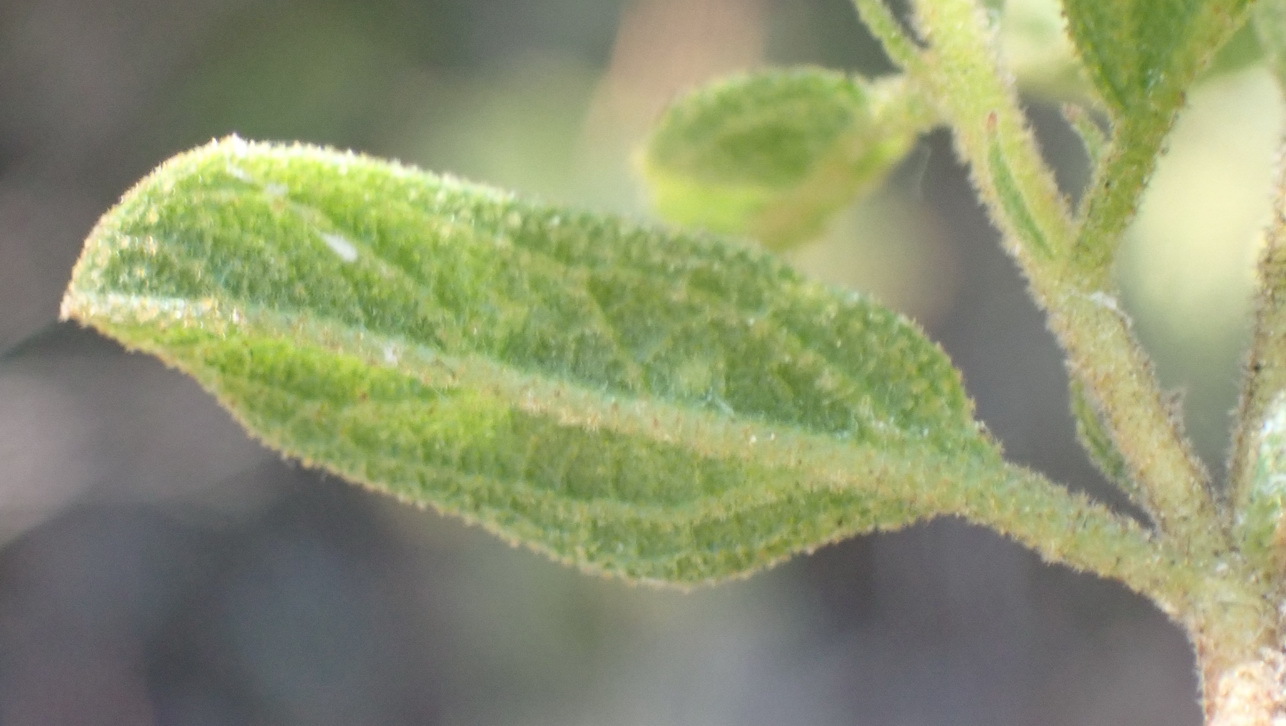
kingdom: Plantae
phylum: Tracheophyta
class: Magnoliopsida
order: Malvales
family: Malvaceae
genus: Hermannia
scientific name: Hermannia salviifolia
